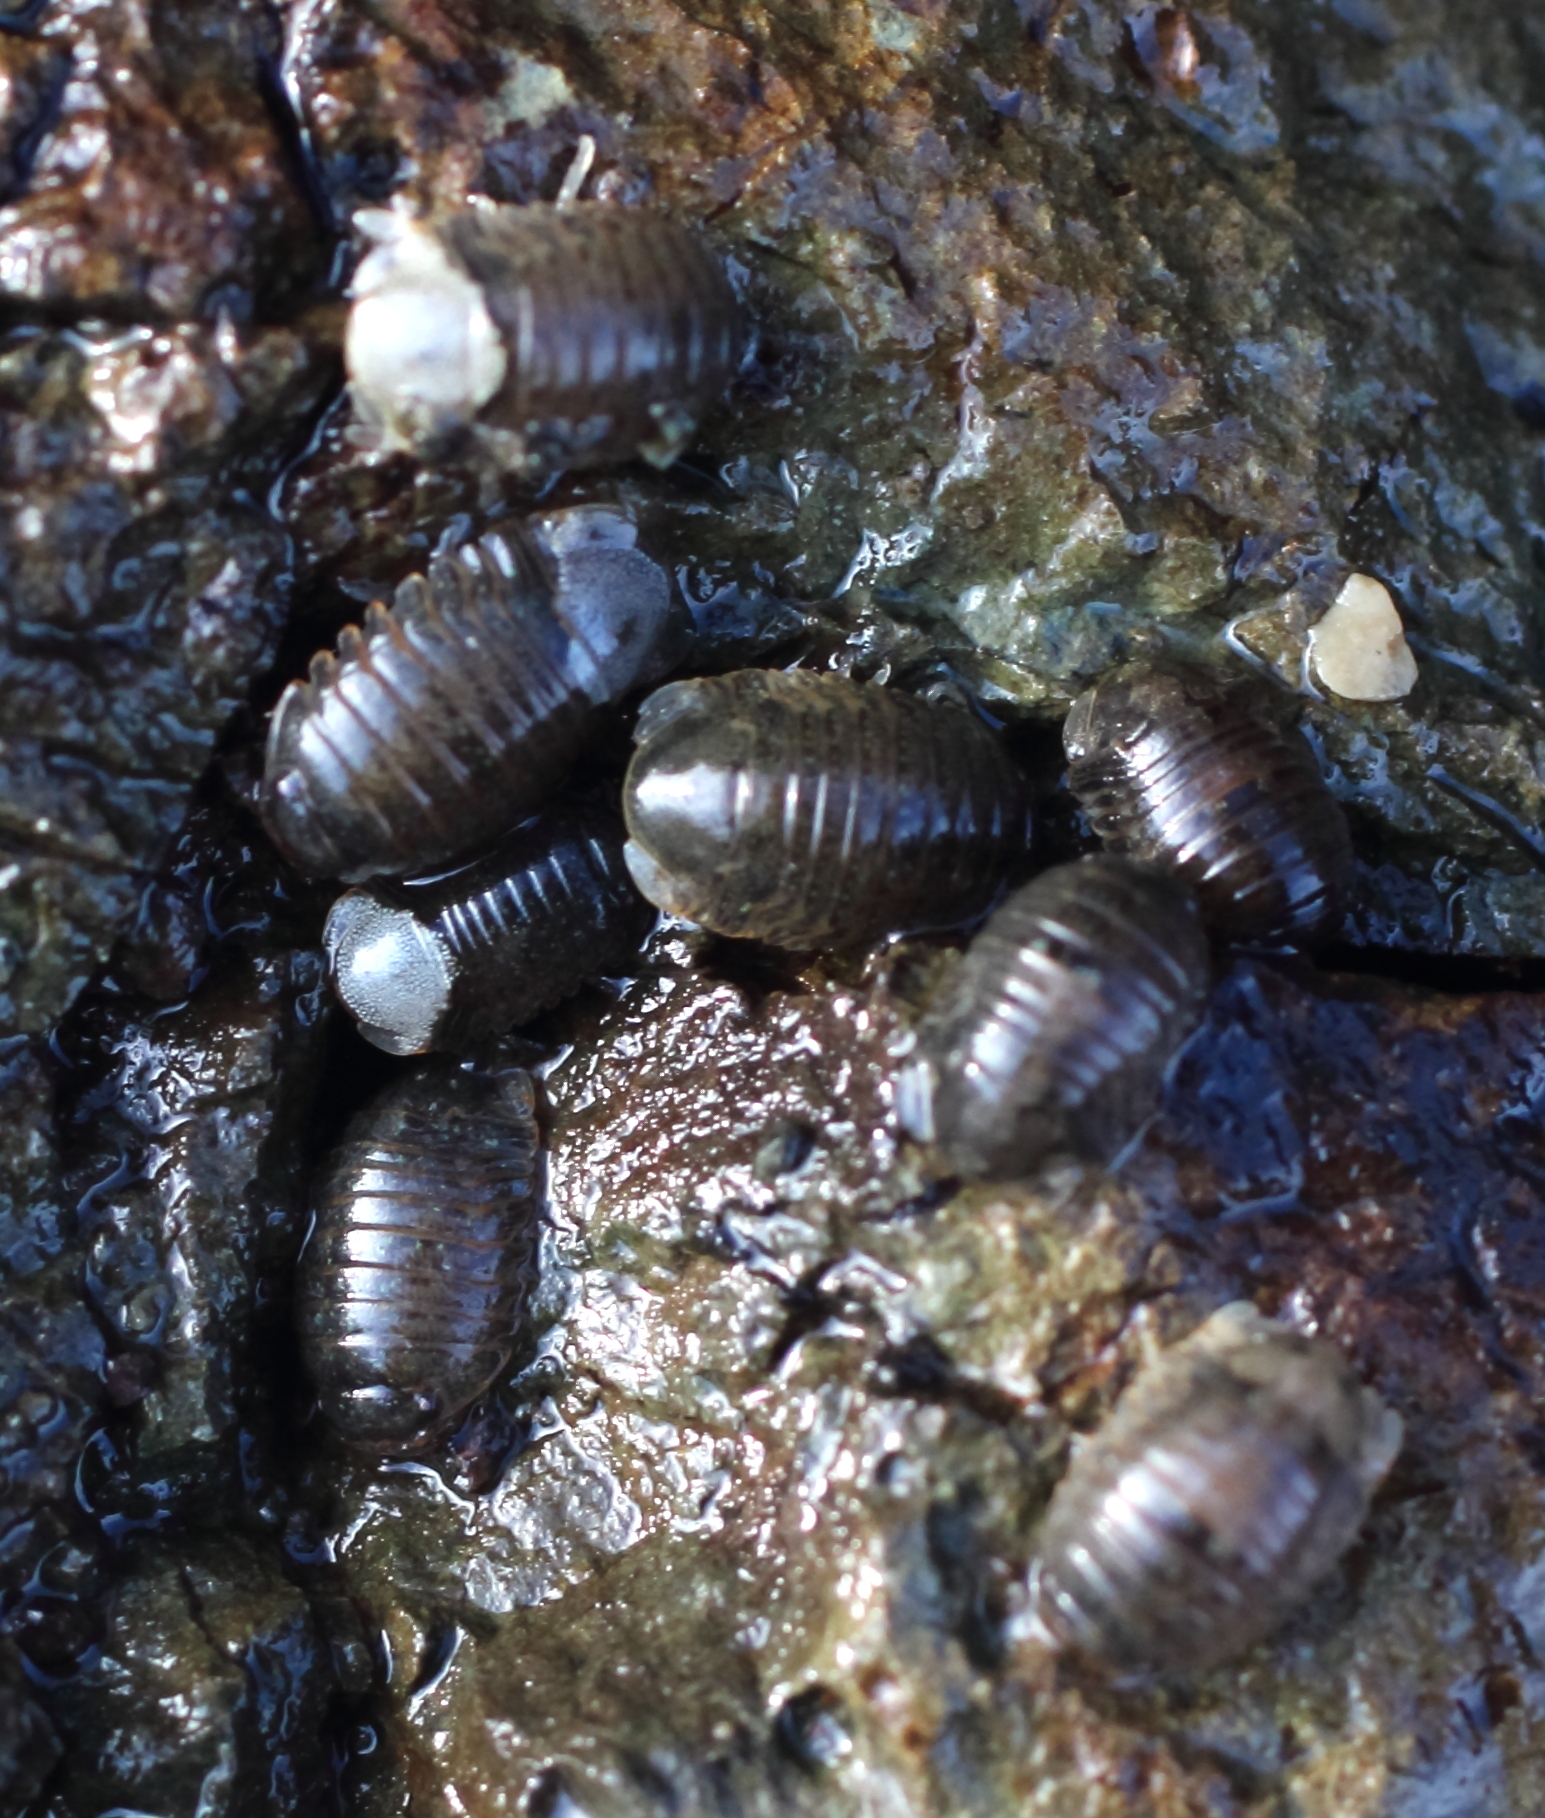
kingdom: Animalia
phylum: Arthropoda
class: Malacostraca
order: Isopoda
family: Sphaeromatidae
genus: Gnorimosphaeroma
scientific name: Gnorimosphaeroma oregonense
